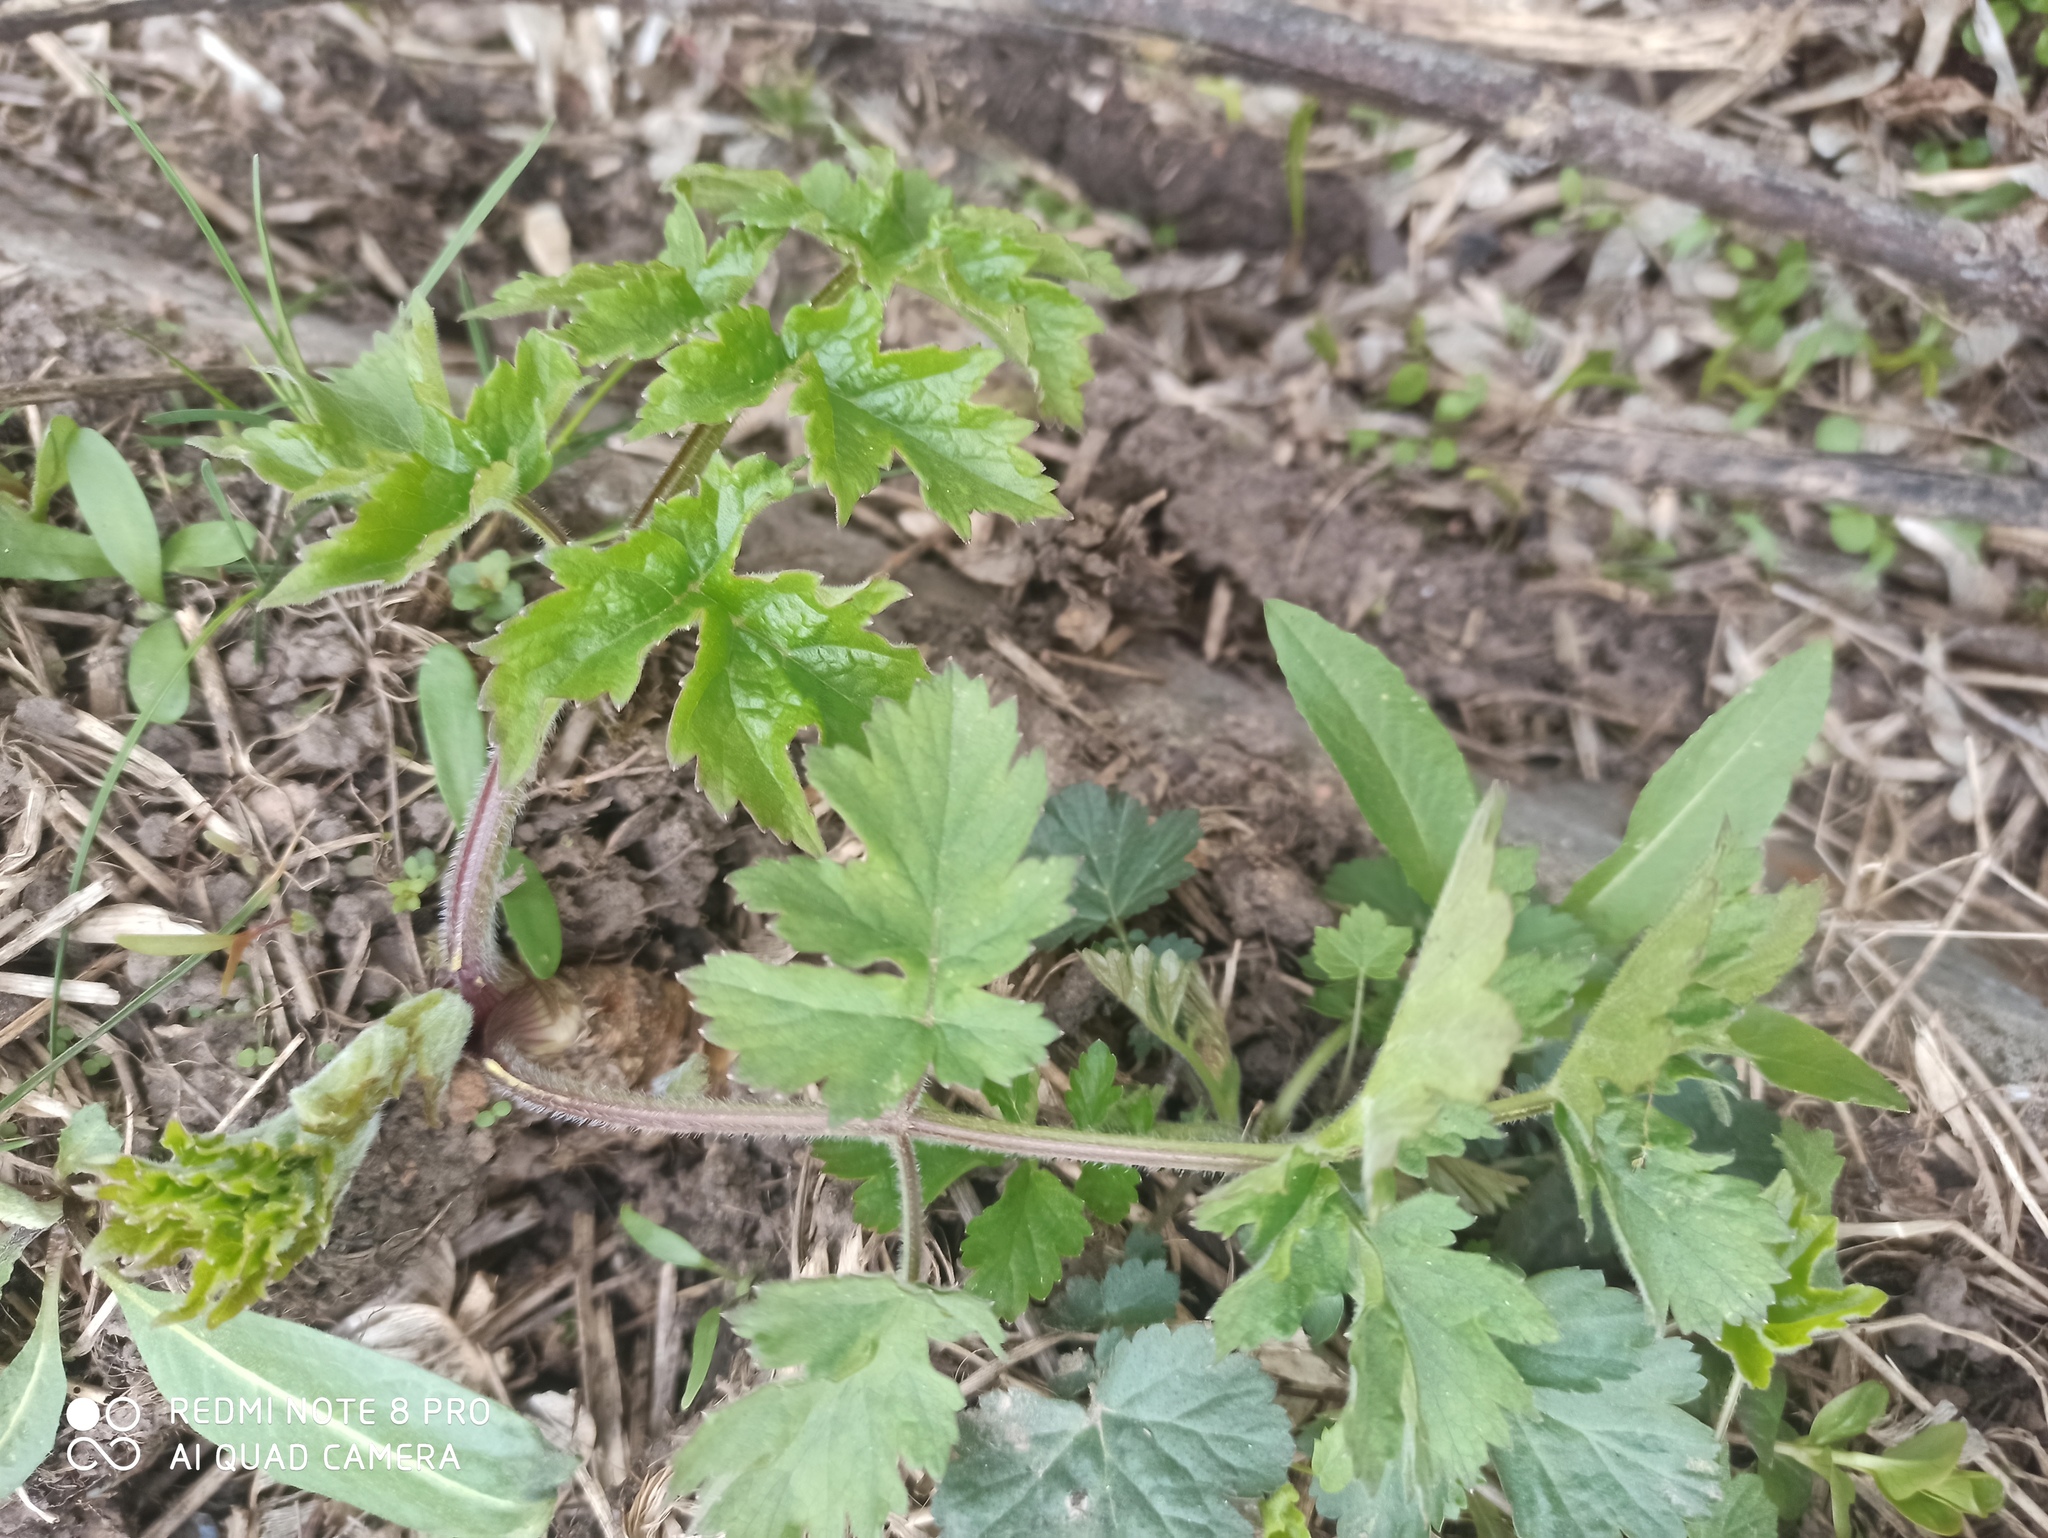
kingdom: Plantae
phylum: Tracheophyta
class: Magnoliopsida
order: Apiales
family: Apiaceae
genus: Heracleum
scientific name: Heracleum sphondylium
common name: Hogweed
